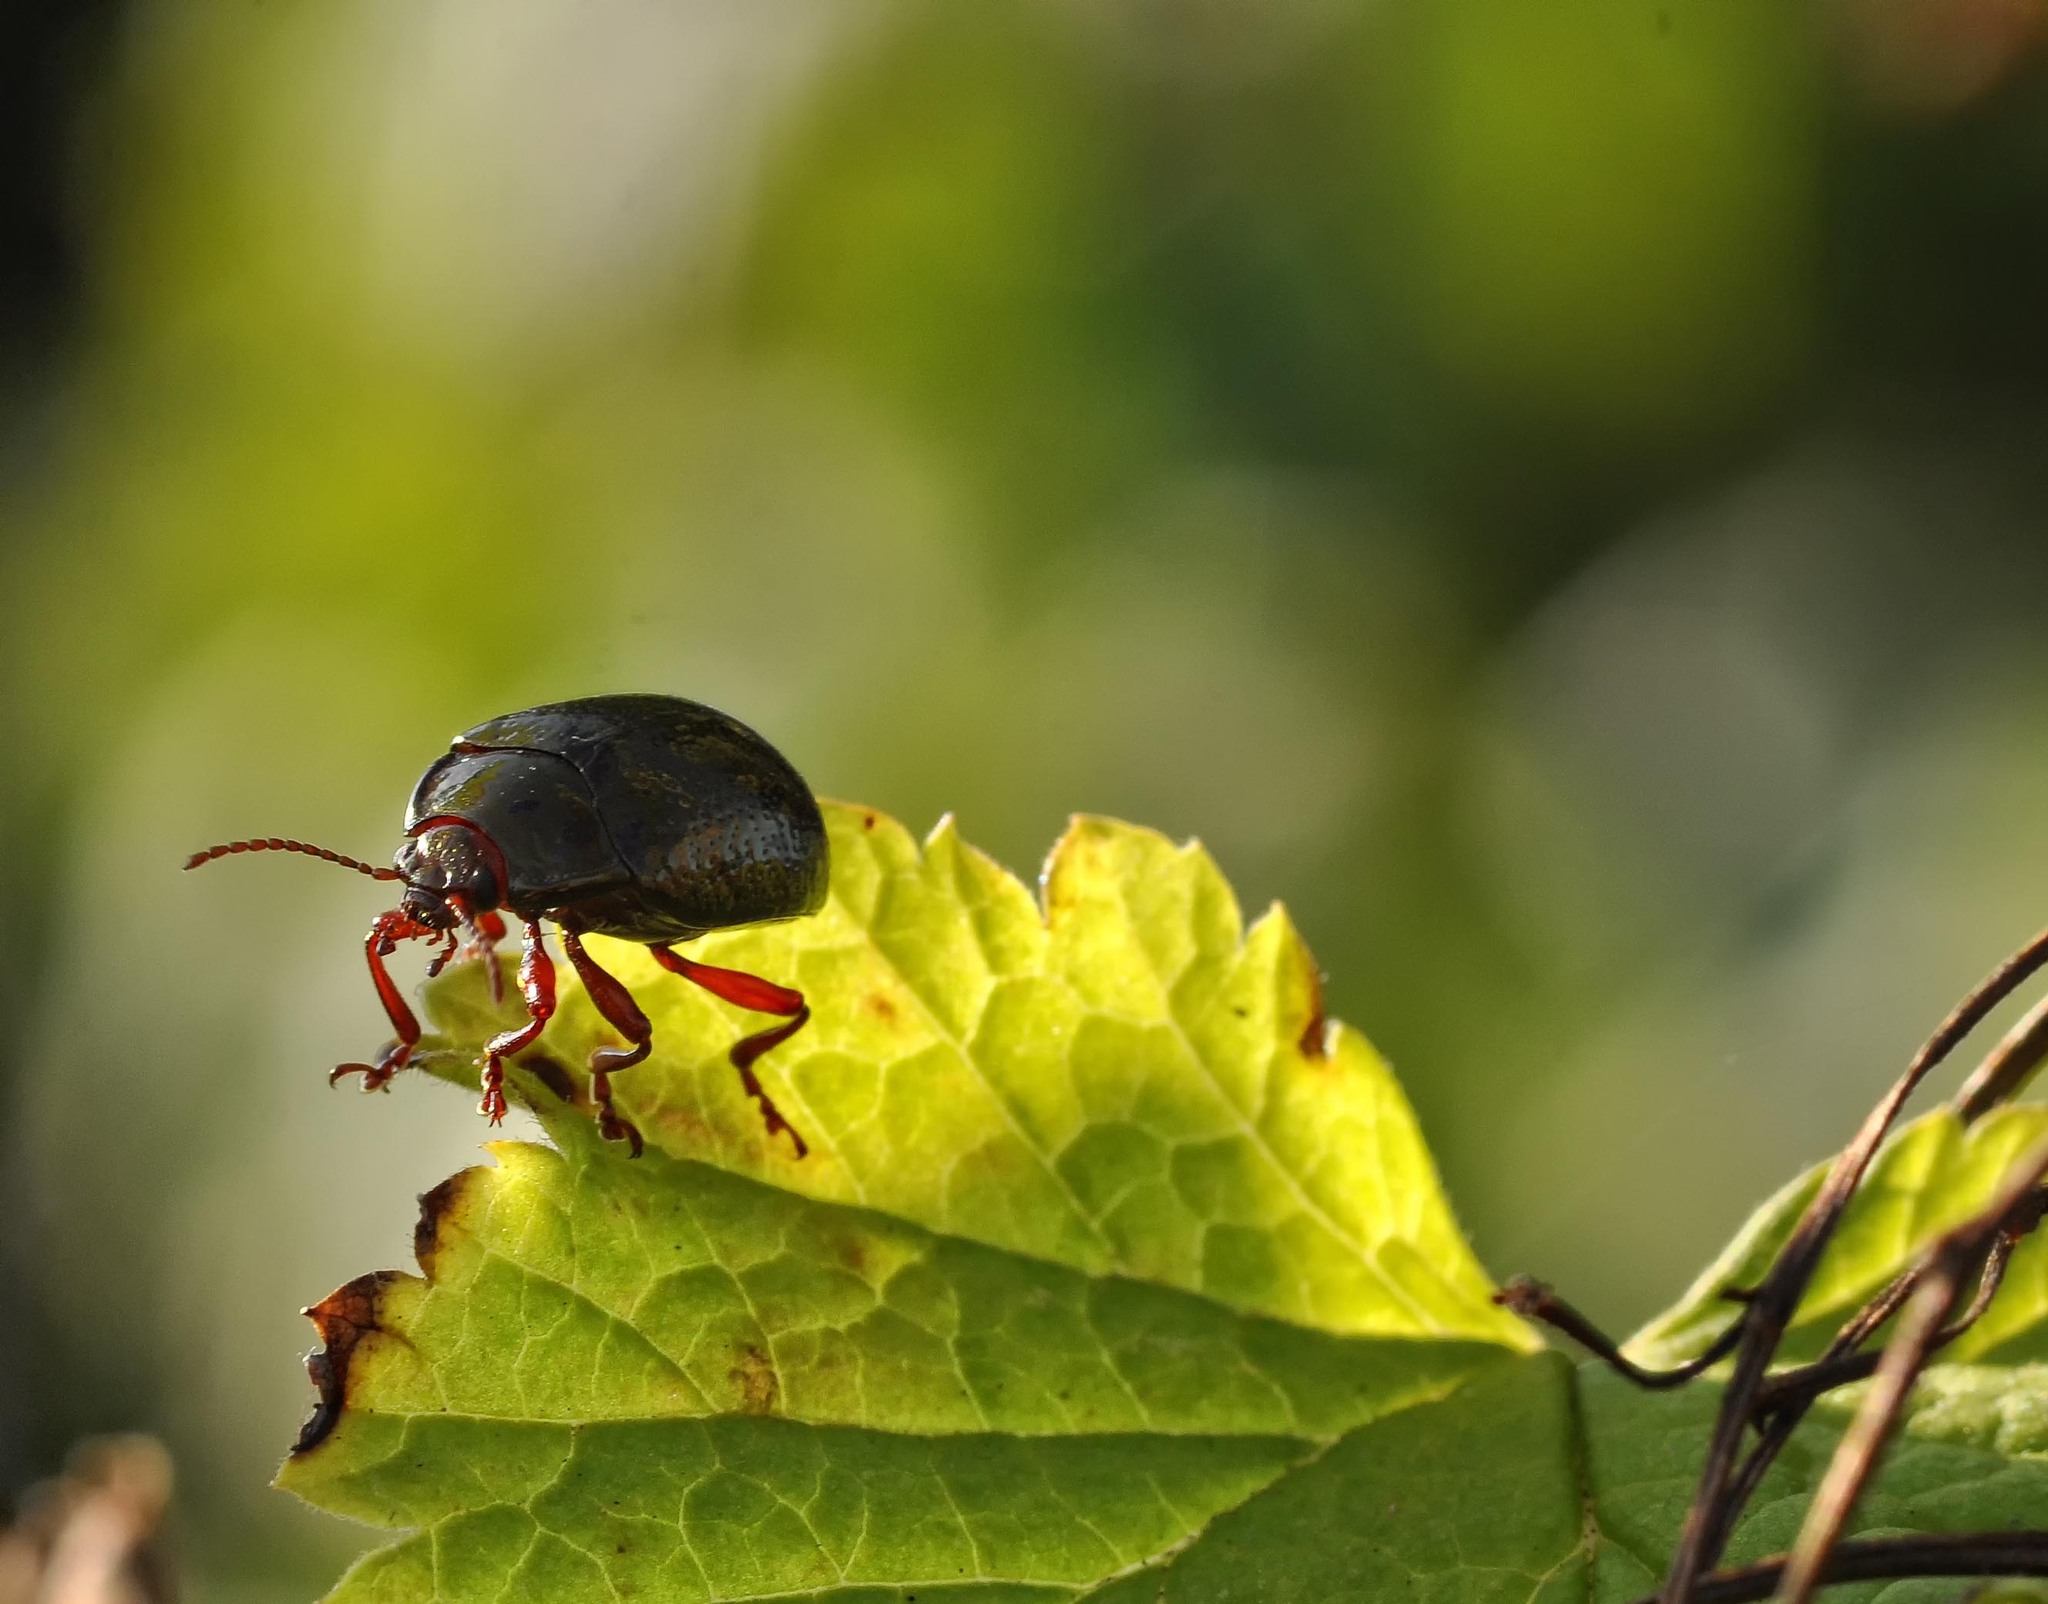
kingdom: Animalia
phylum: Arthropoda
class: Insecta
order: Coleoptera
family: Chrysomelidae
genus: Chrysolina
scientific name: Chrysolina bankii
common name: Leaf beetle
